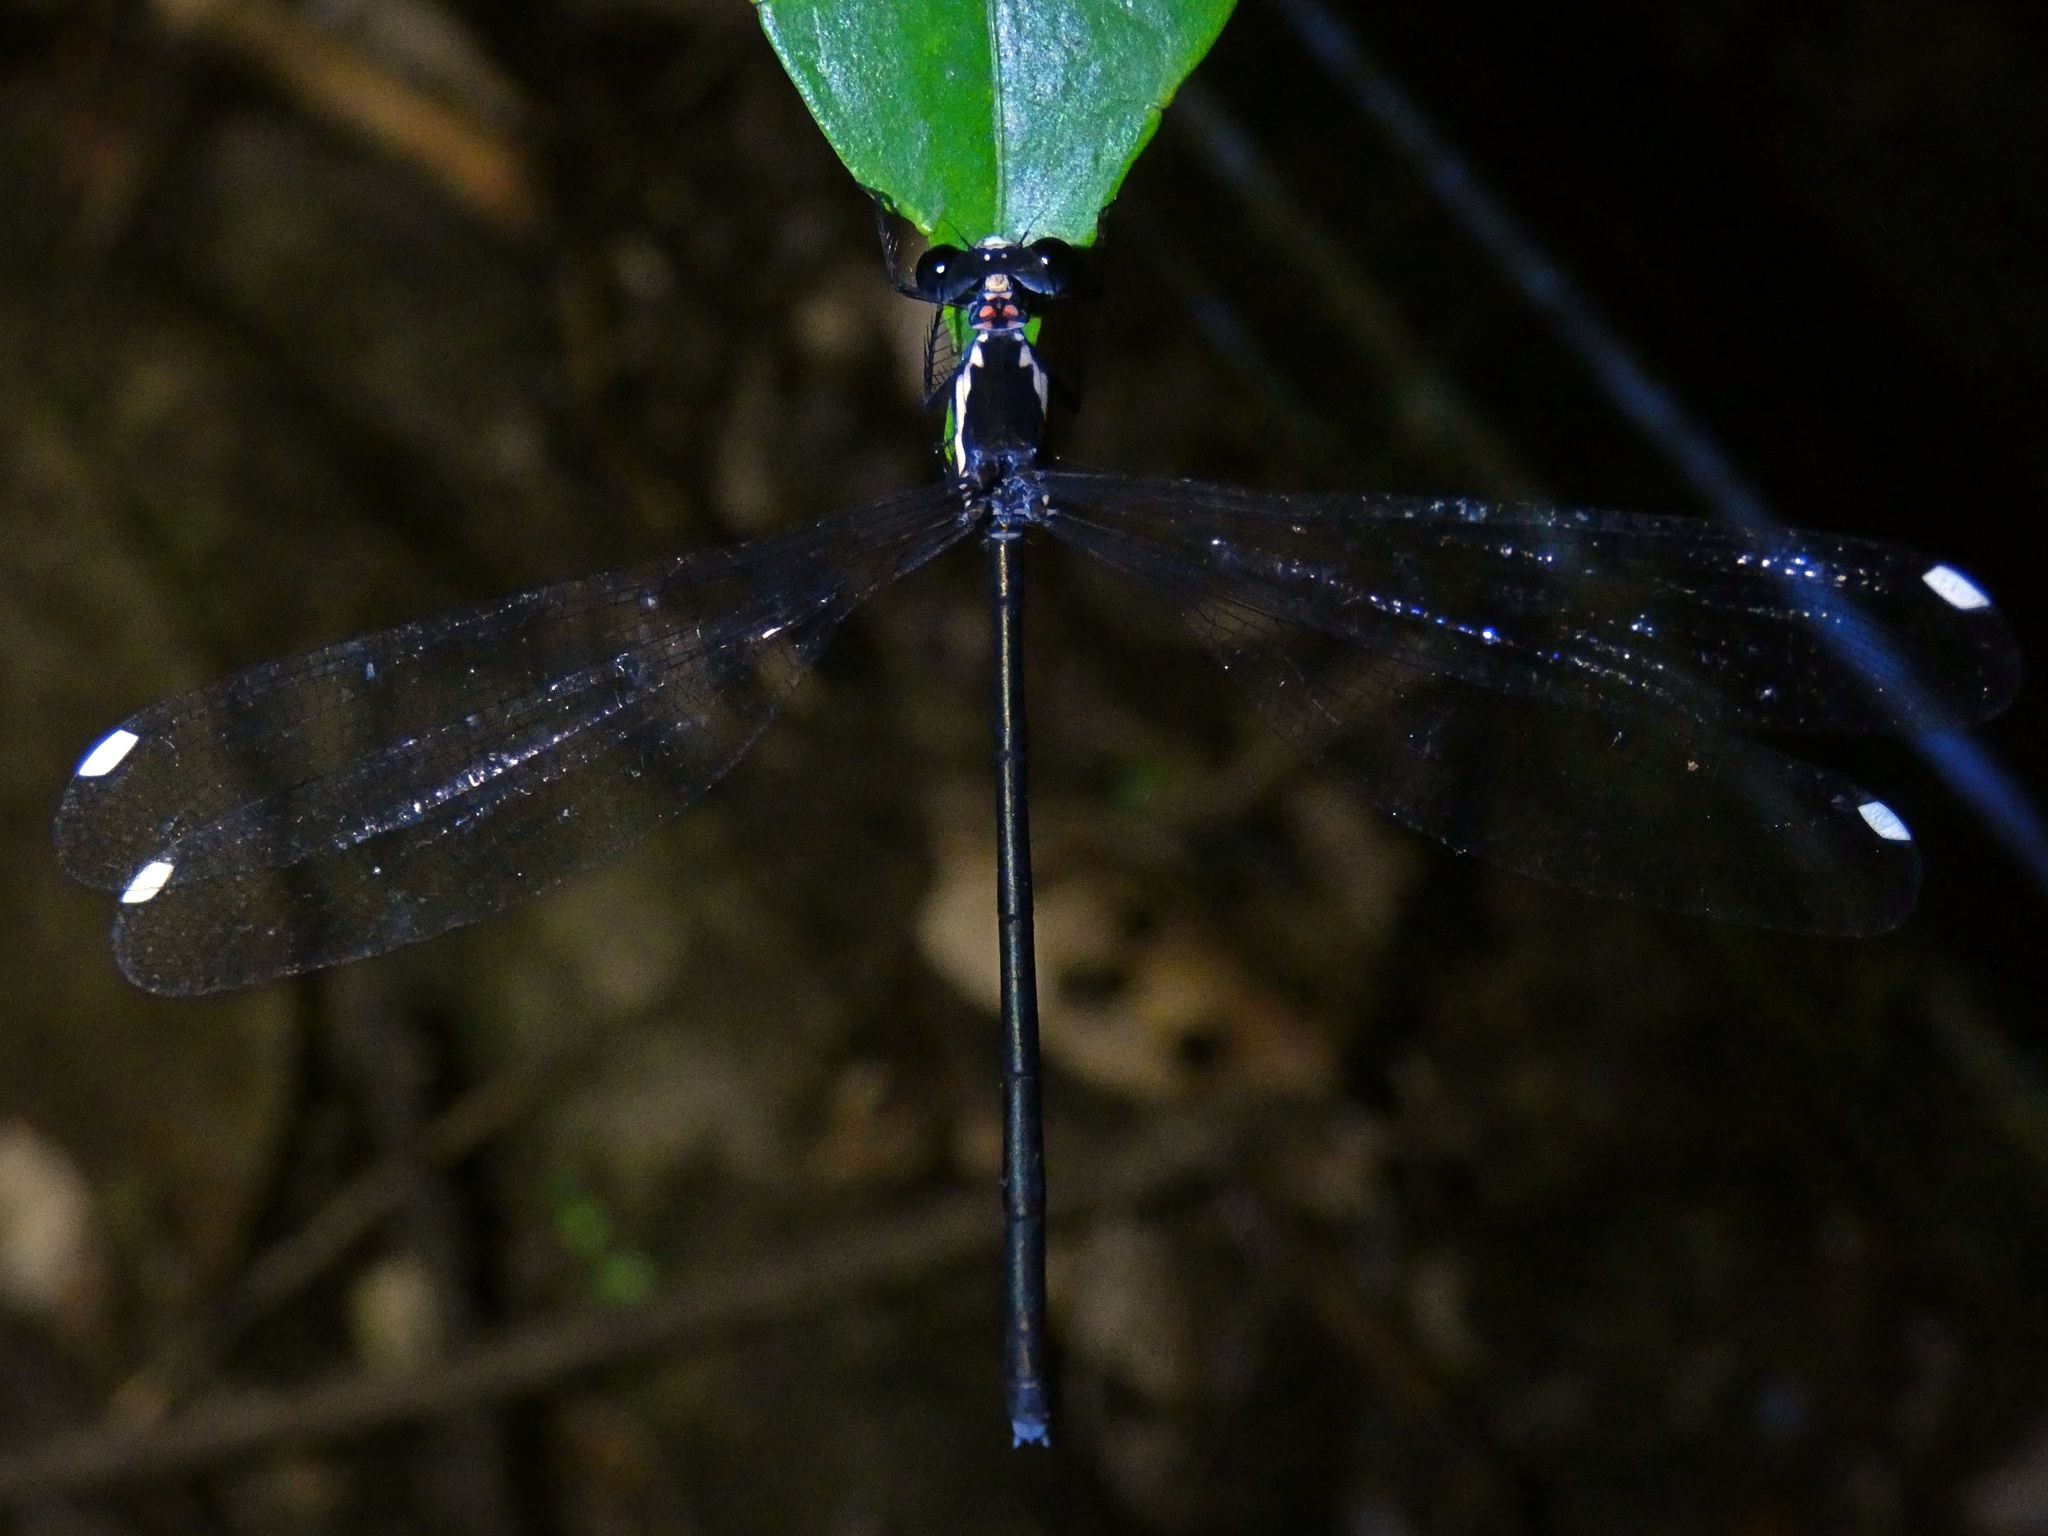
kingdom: Animalia
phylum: Arthropoda
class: Insecta
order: Odonata
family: Argiolestidae
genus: Podopteryx
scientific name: Podopteryx selysi
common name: Treehole flatwing
